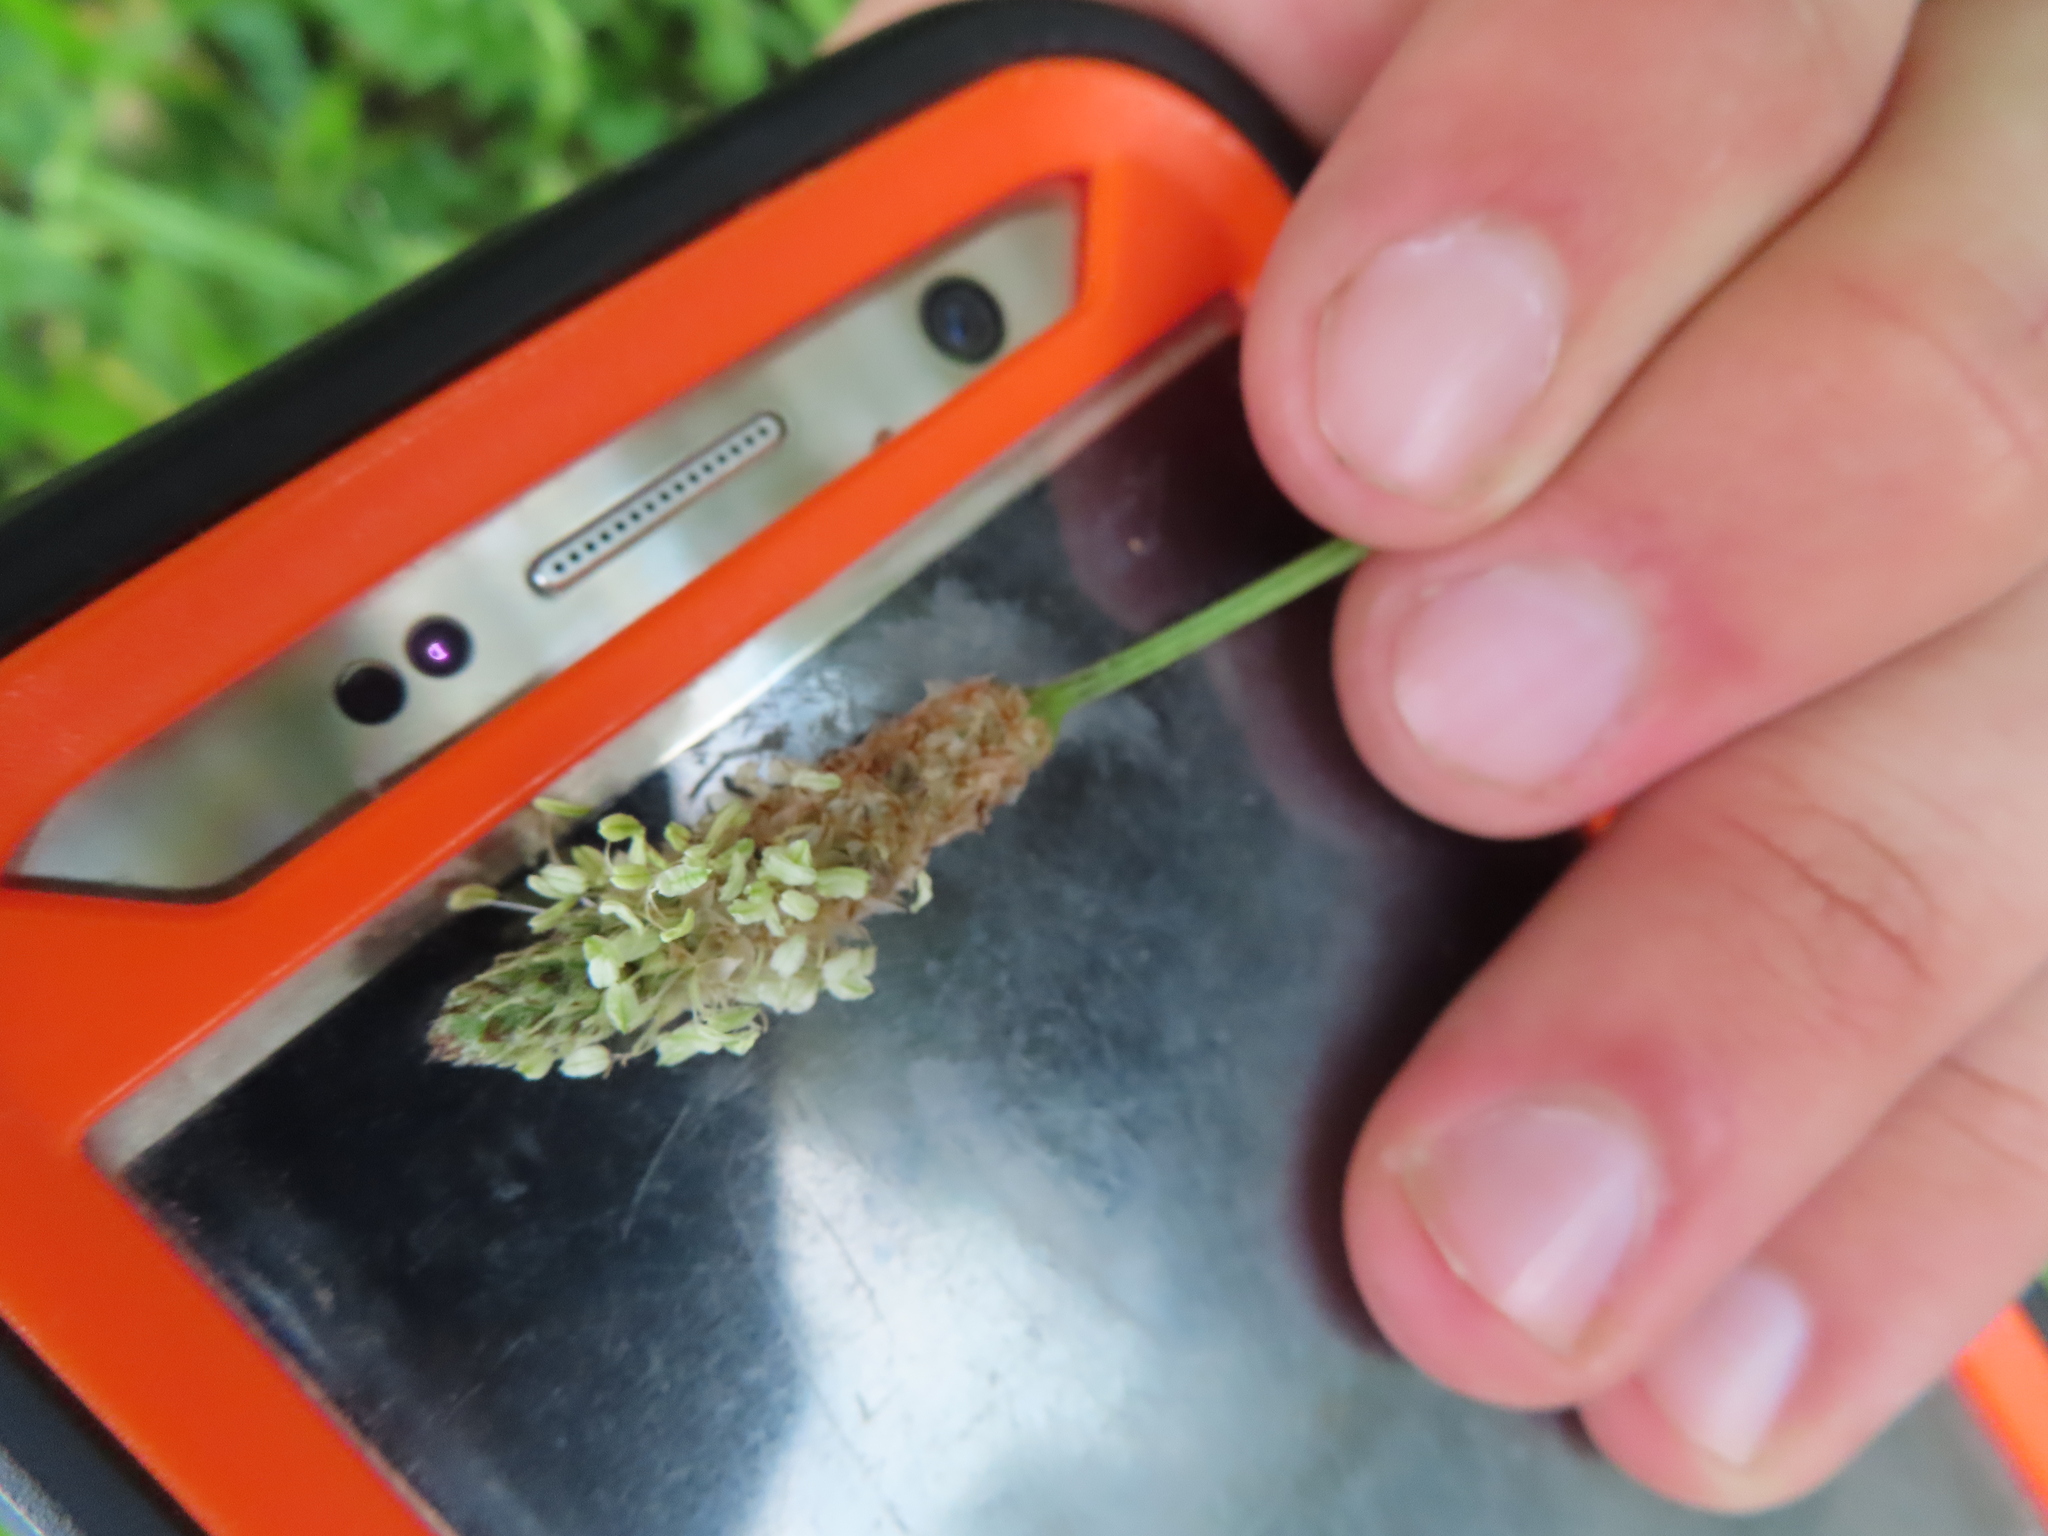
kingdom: Plantae
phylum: Tracheophyta
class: Magnoliopsida
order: Lamiales
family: Plantaginaceae
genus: Plantago
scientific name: Plantago lanceolata
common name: Ribwort plantain
